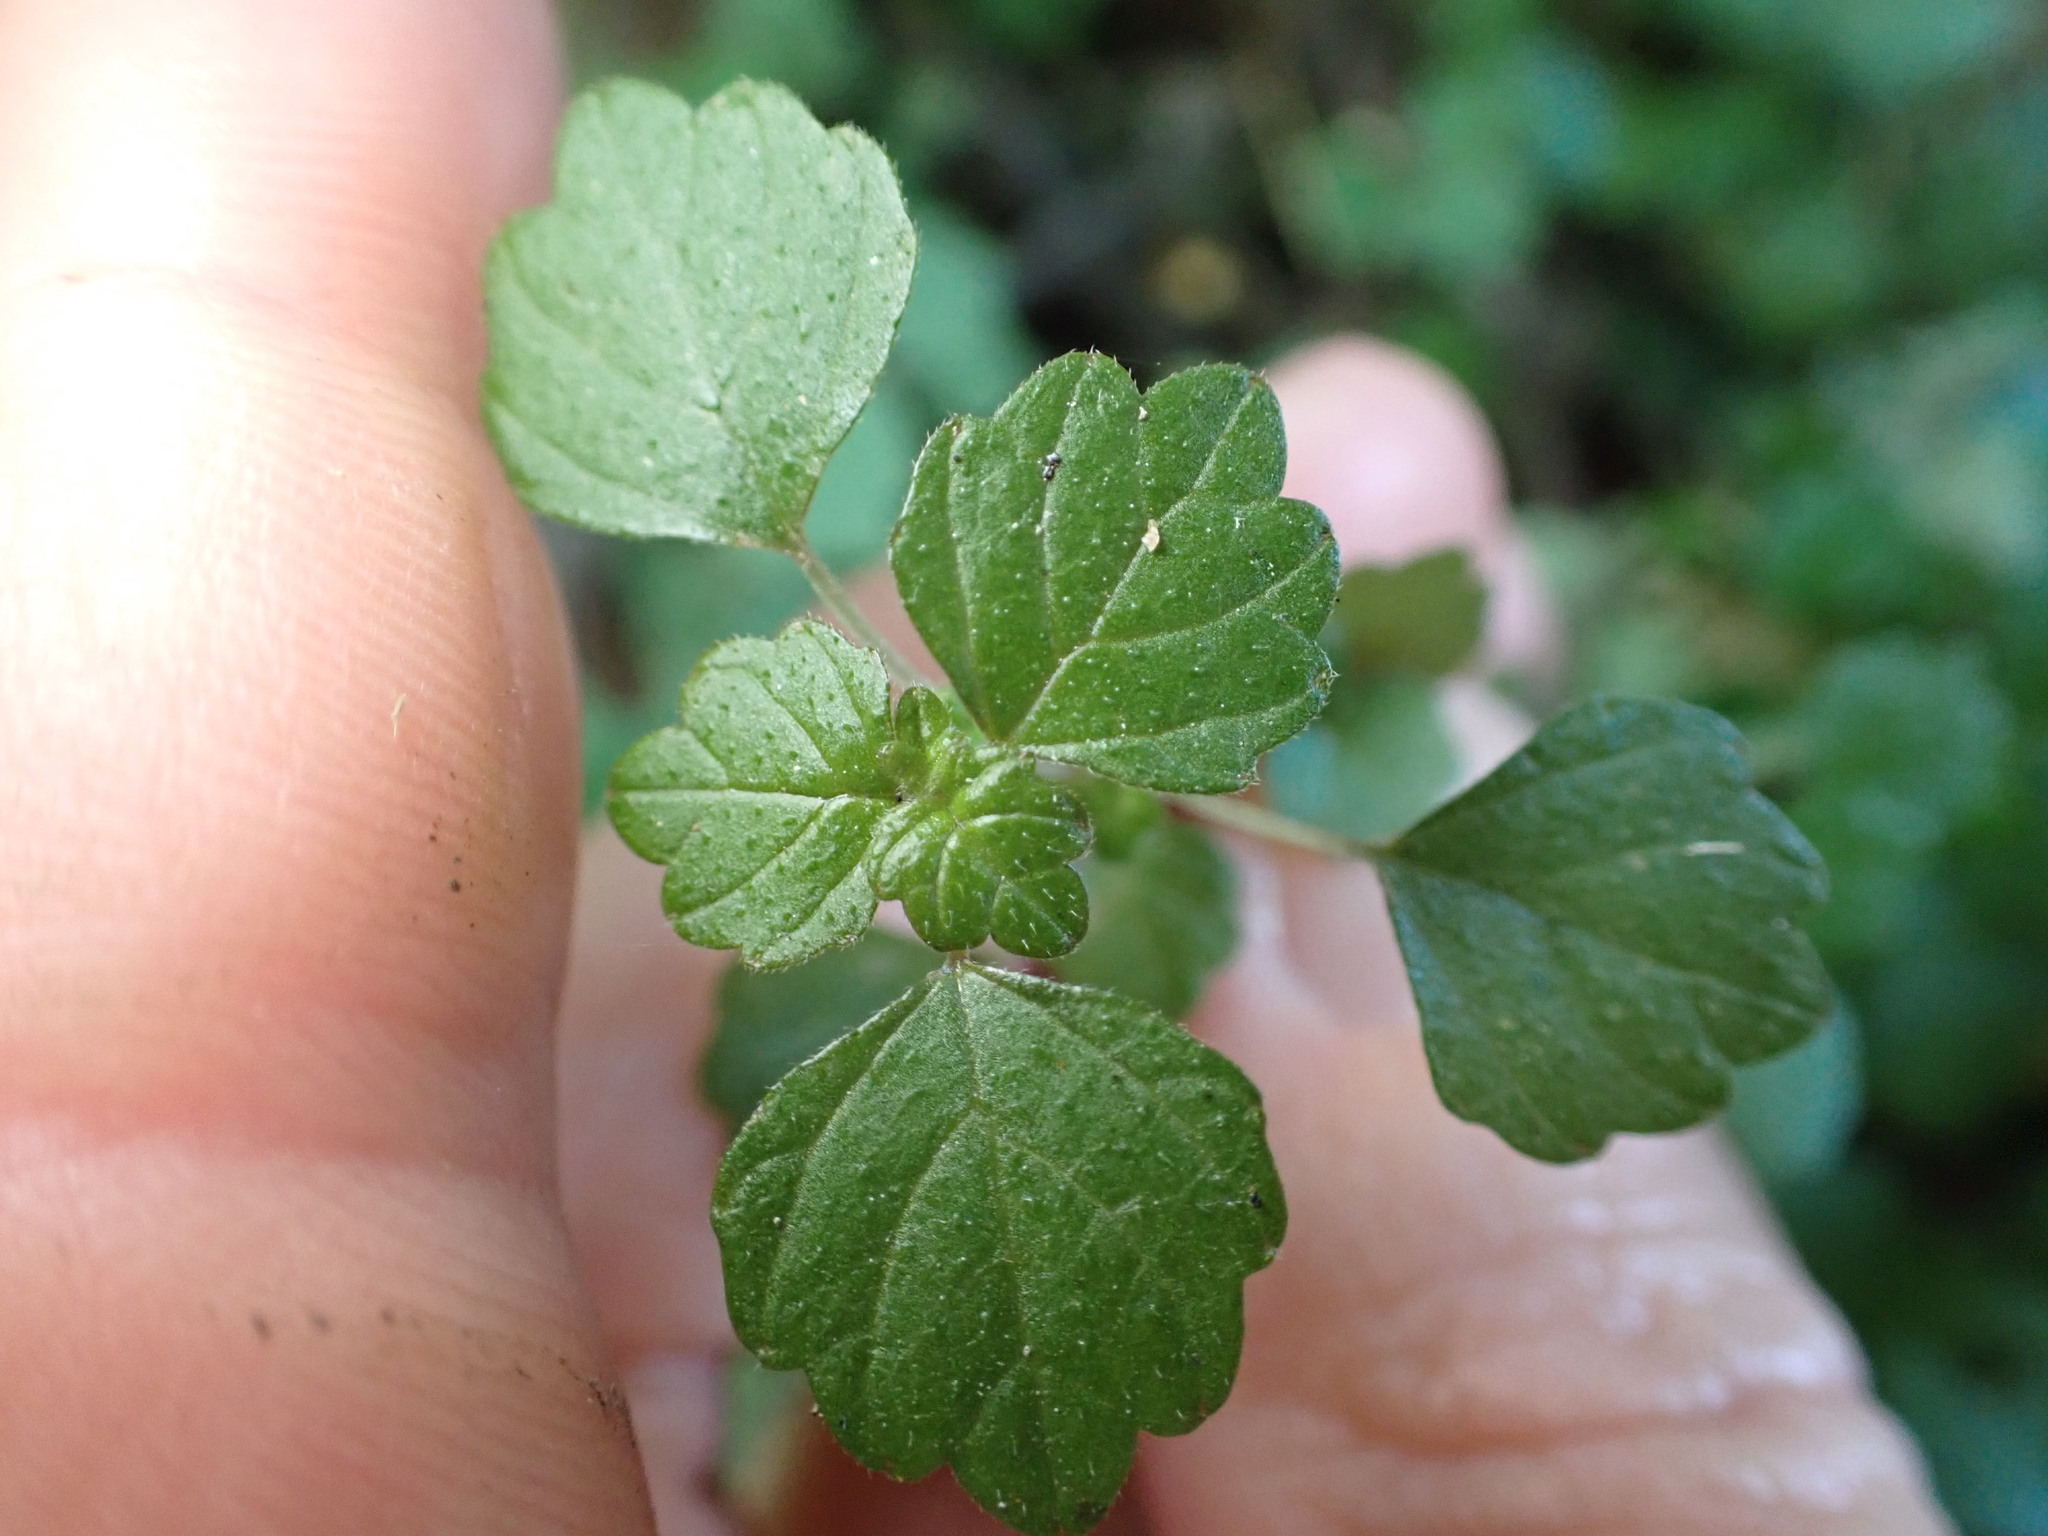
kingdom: Plantae
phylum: Tracheophyta
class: Magnoliopsida
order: Rosales
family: Urticaceae
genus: Australina
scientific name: Australina pusilla
